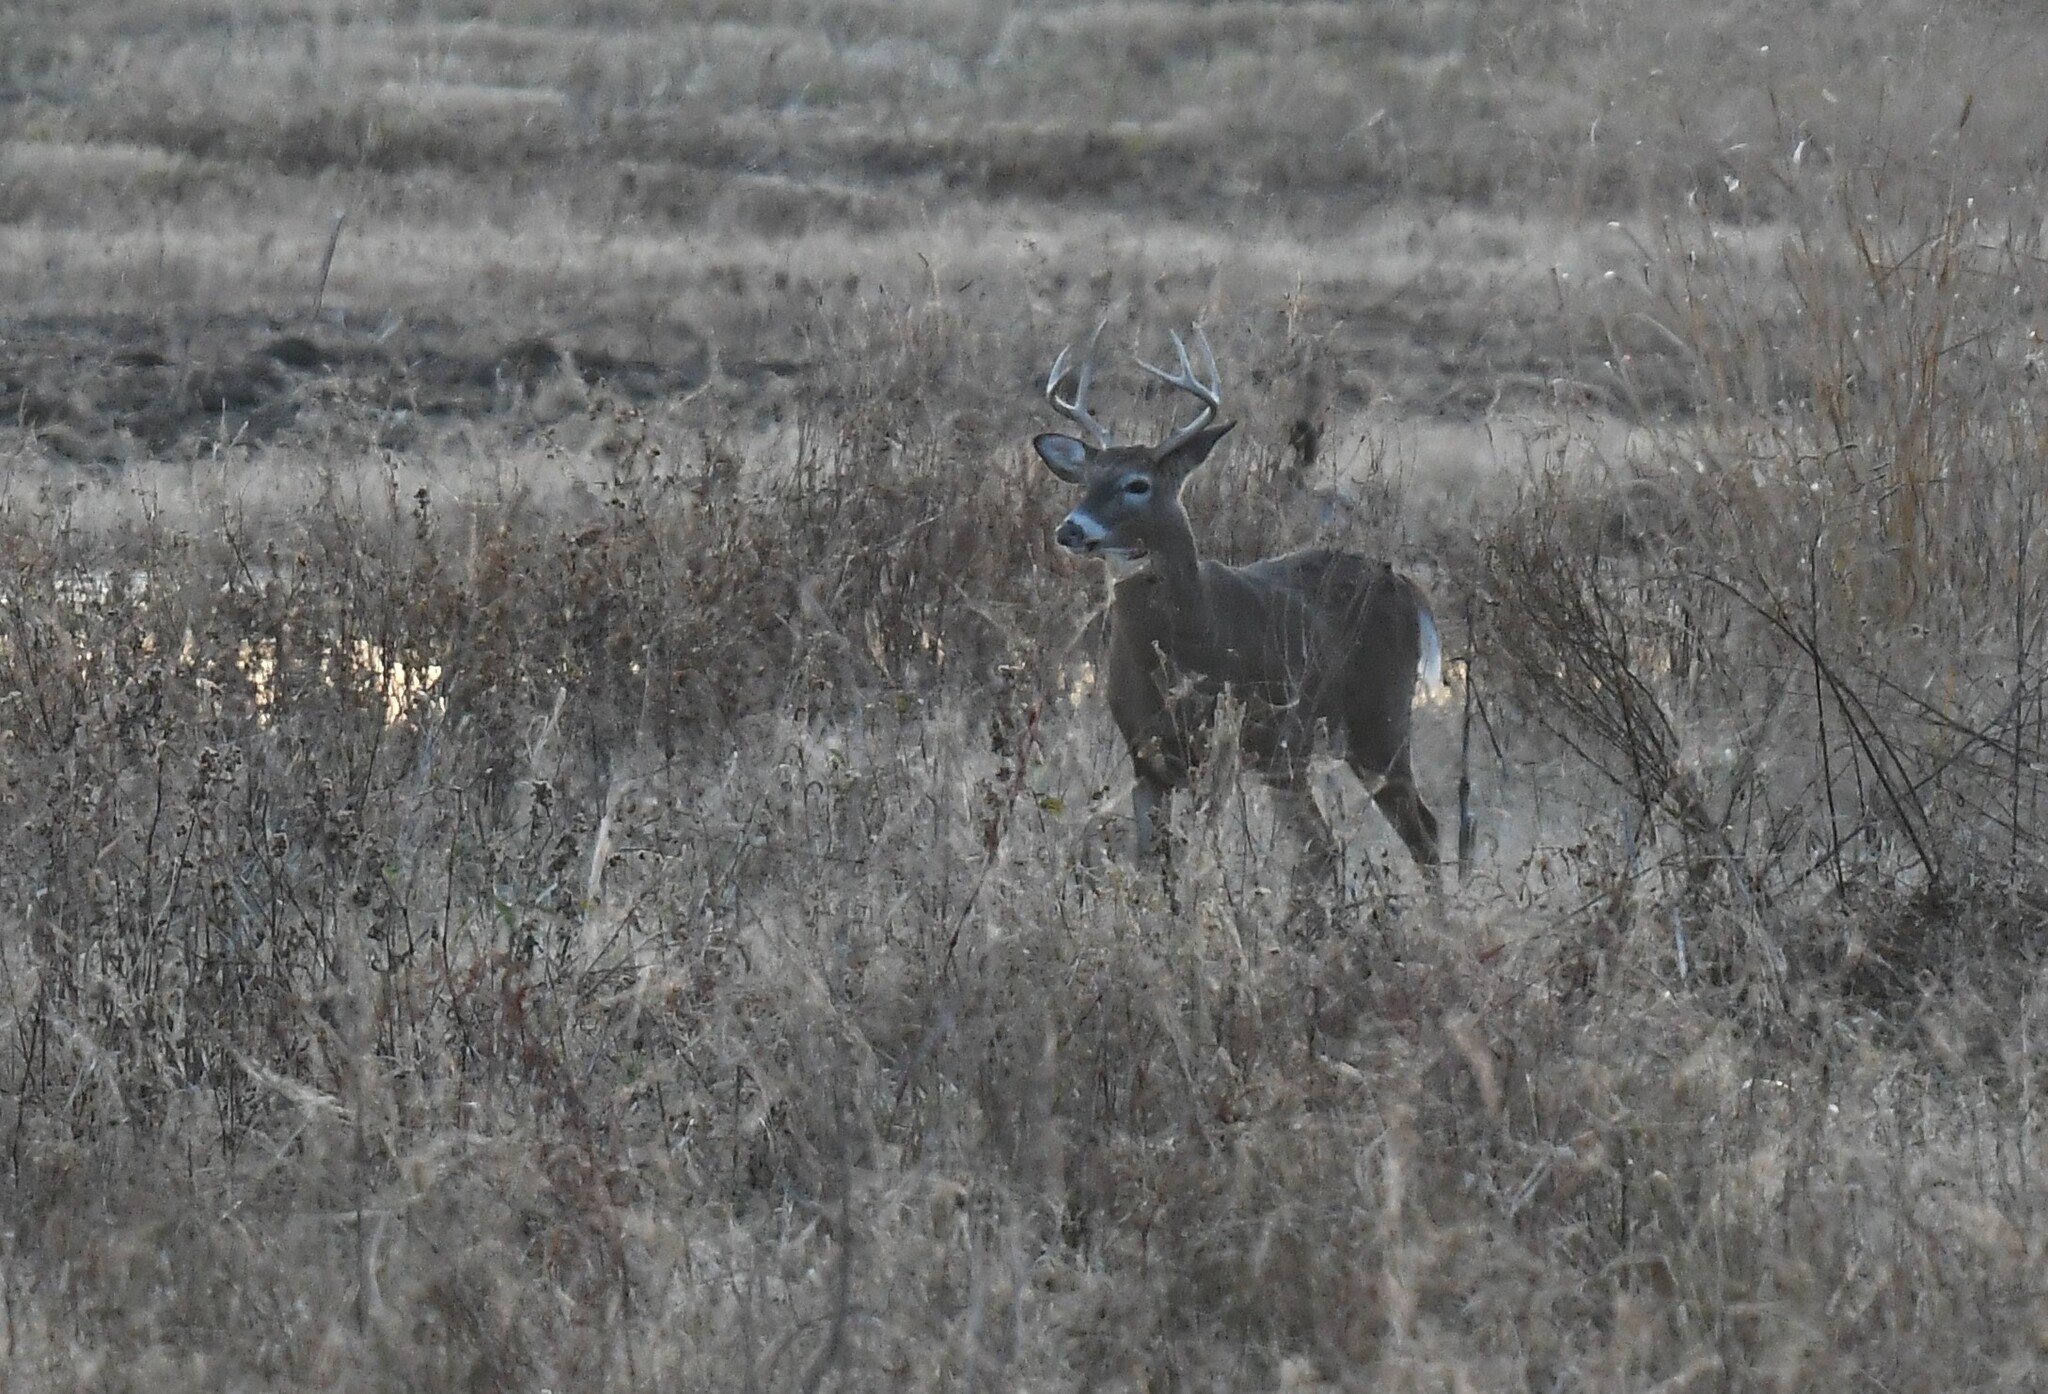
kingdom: Animalia
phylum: Chordata
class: Mammalia
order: Artiodactyla
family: Cervidae
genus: Odocoileus
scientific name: Odocoileus virginianus
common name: White-tailed deer
